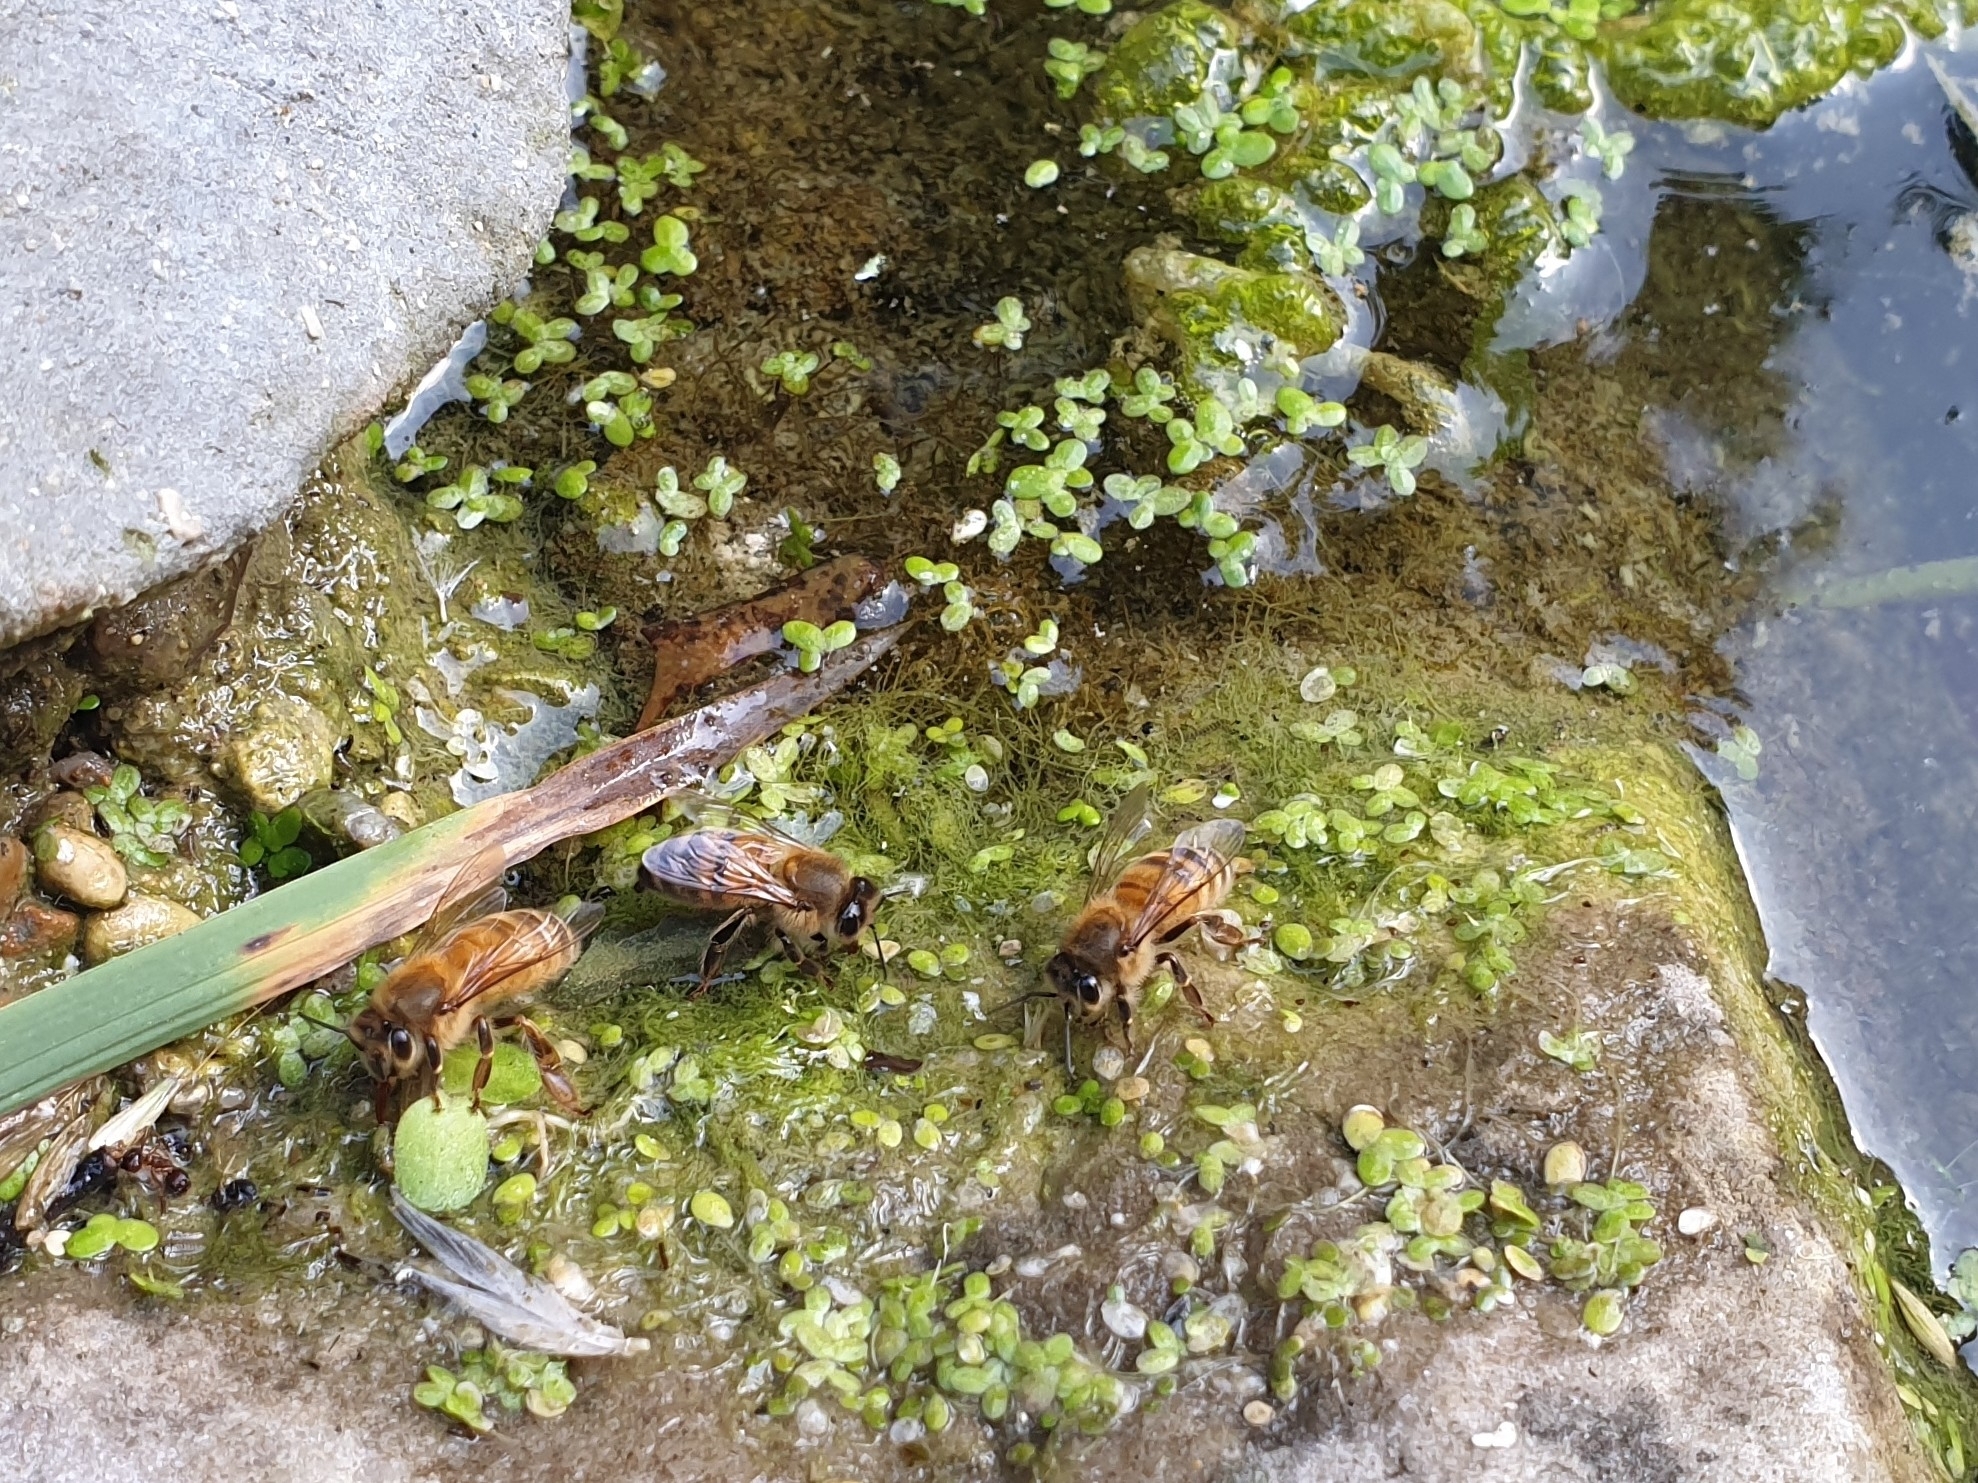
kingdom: Animalia
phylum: Arthropoda
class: Insecta
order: Hymenoptera
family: Apidae
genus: Apis
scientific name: Apis mellifera
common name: Honey bee
